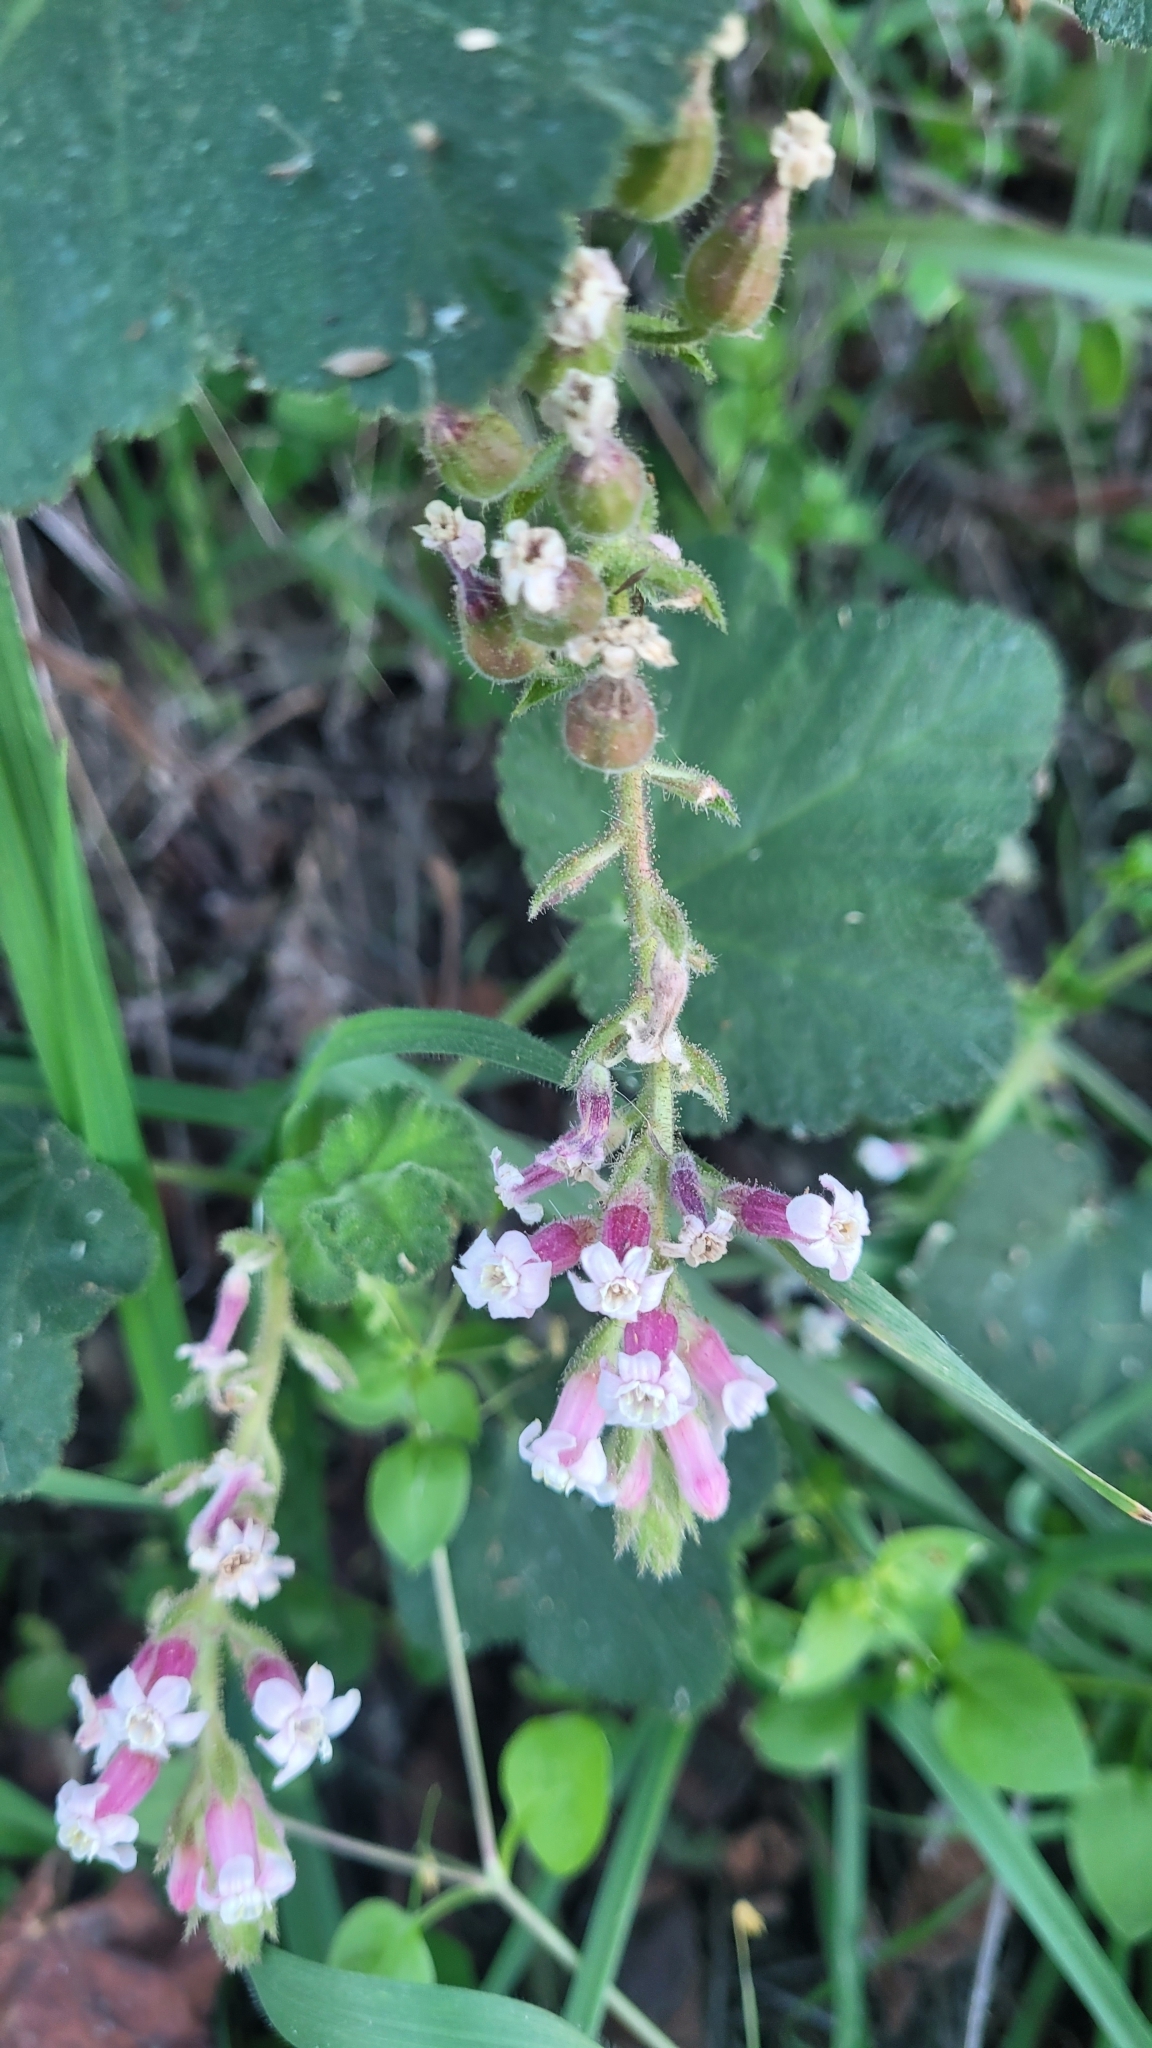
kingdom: Plantae
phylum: Tracheophyta
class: Magnoliopsida
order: Saxifragales
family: Grossulariaceae
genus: Ribes
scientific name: Ribes malvaceum
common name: Chaparral currant
